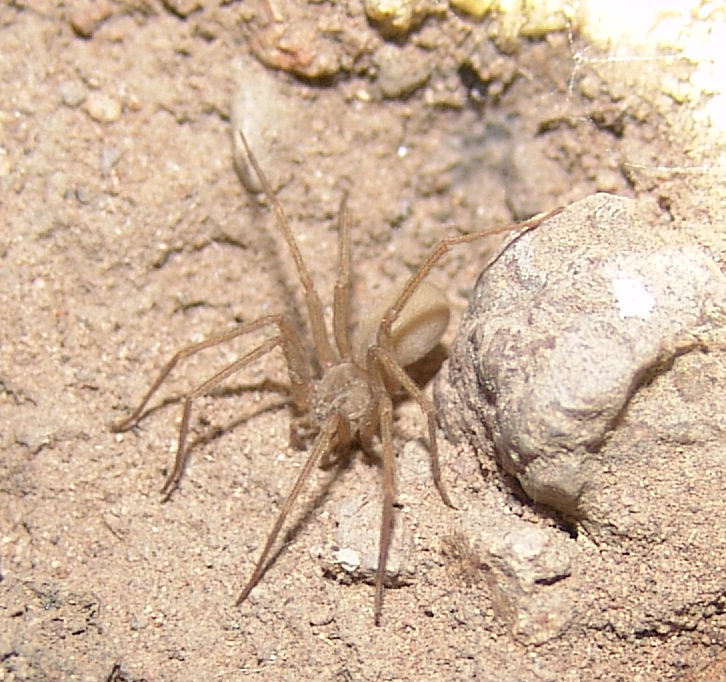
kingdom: Animalia
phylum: Arthropoda
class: Arachnida
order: Araneae
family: Sicariidae
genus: Loxosceles
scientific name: Loxosceles apachea
